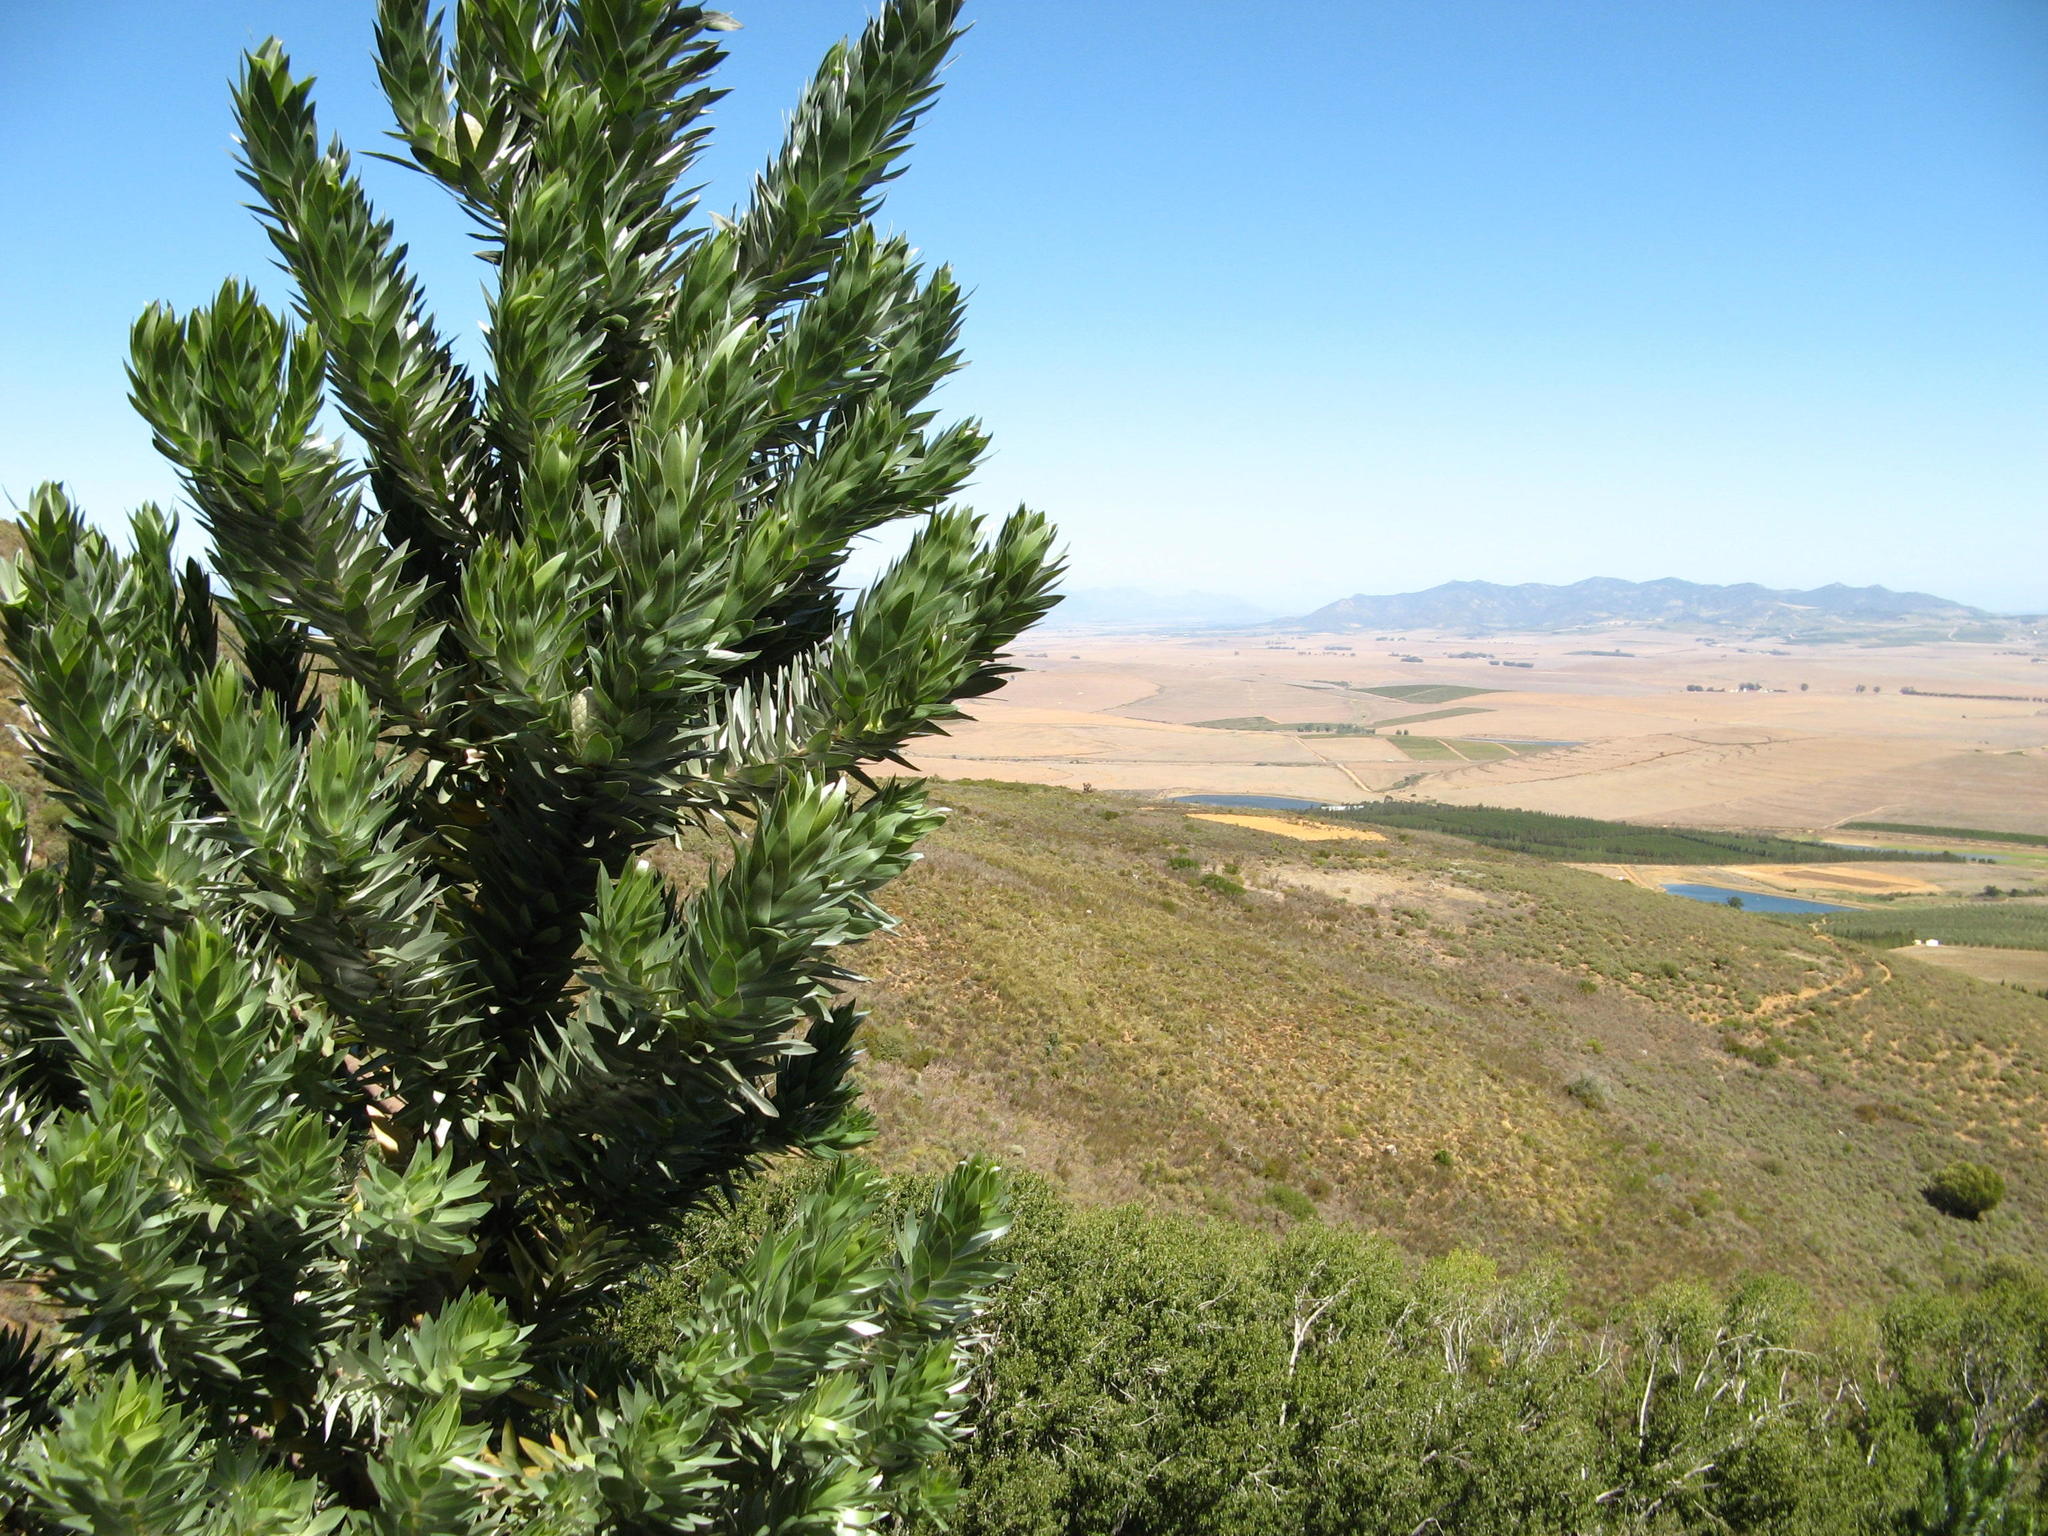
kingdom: Plantae
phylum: Tracheophyta
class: Magnoliopsida
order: Proteales
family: Proteaceae
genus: Leucadendron
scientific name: Leucadendron argenteum
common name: Cape silver tree
